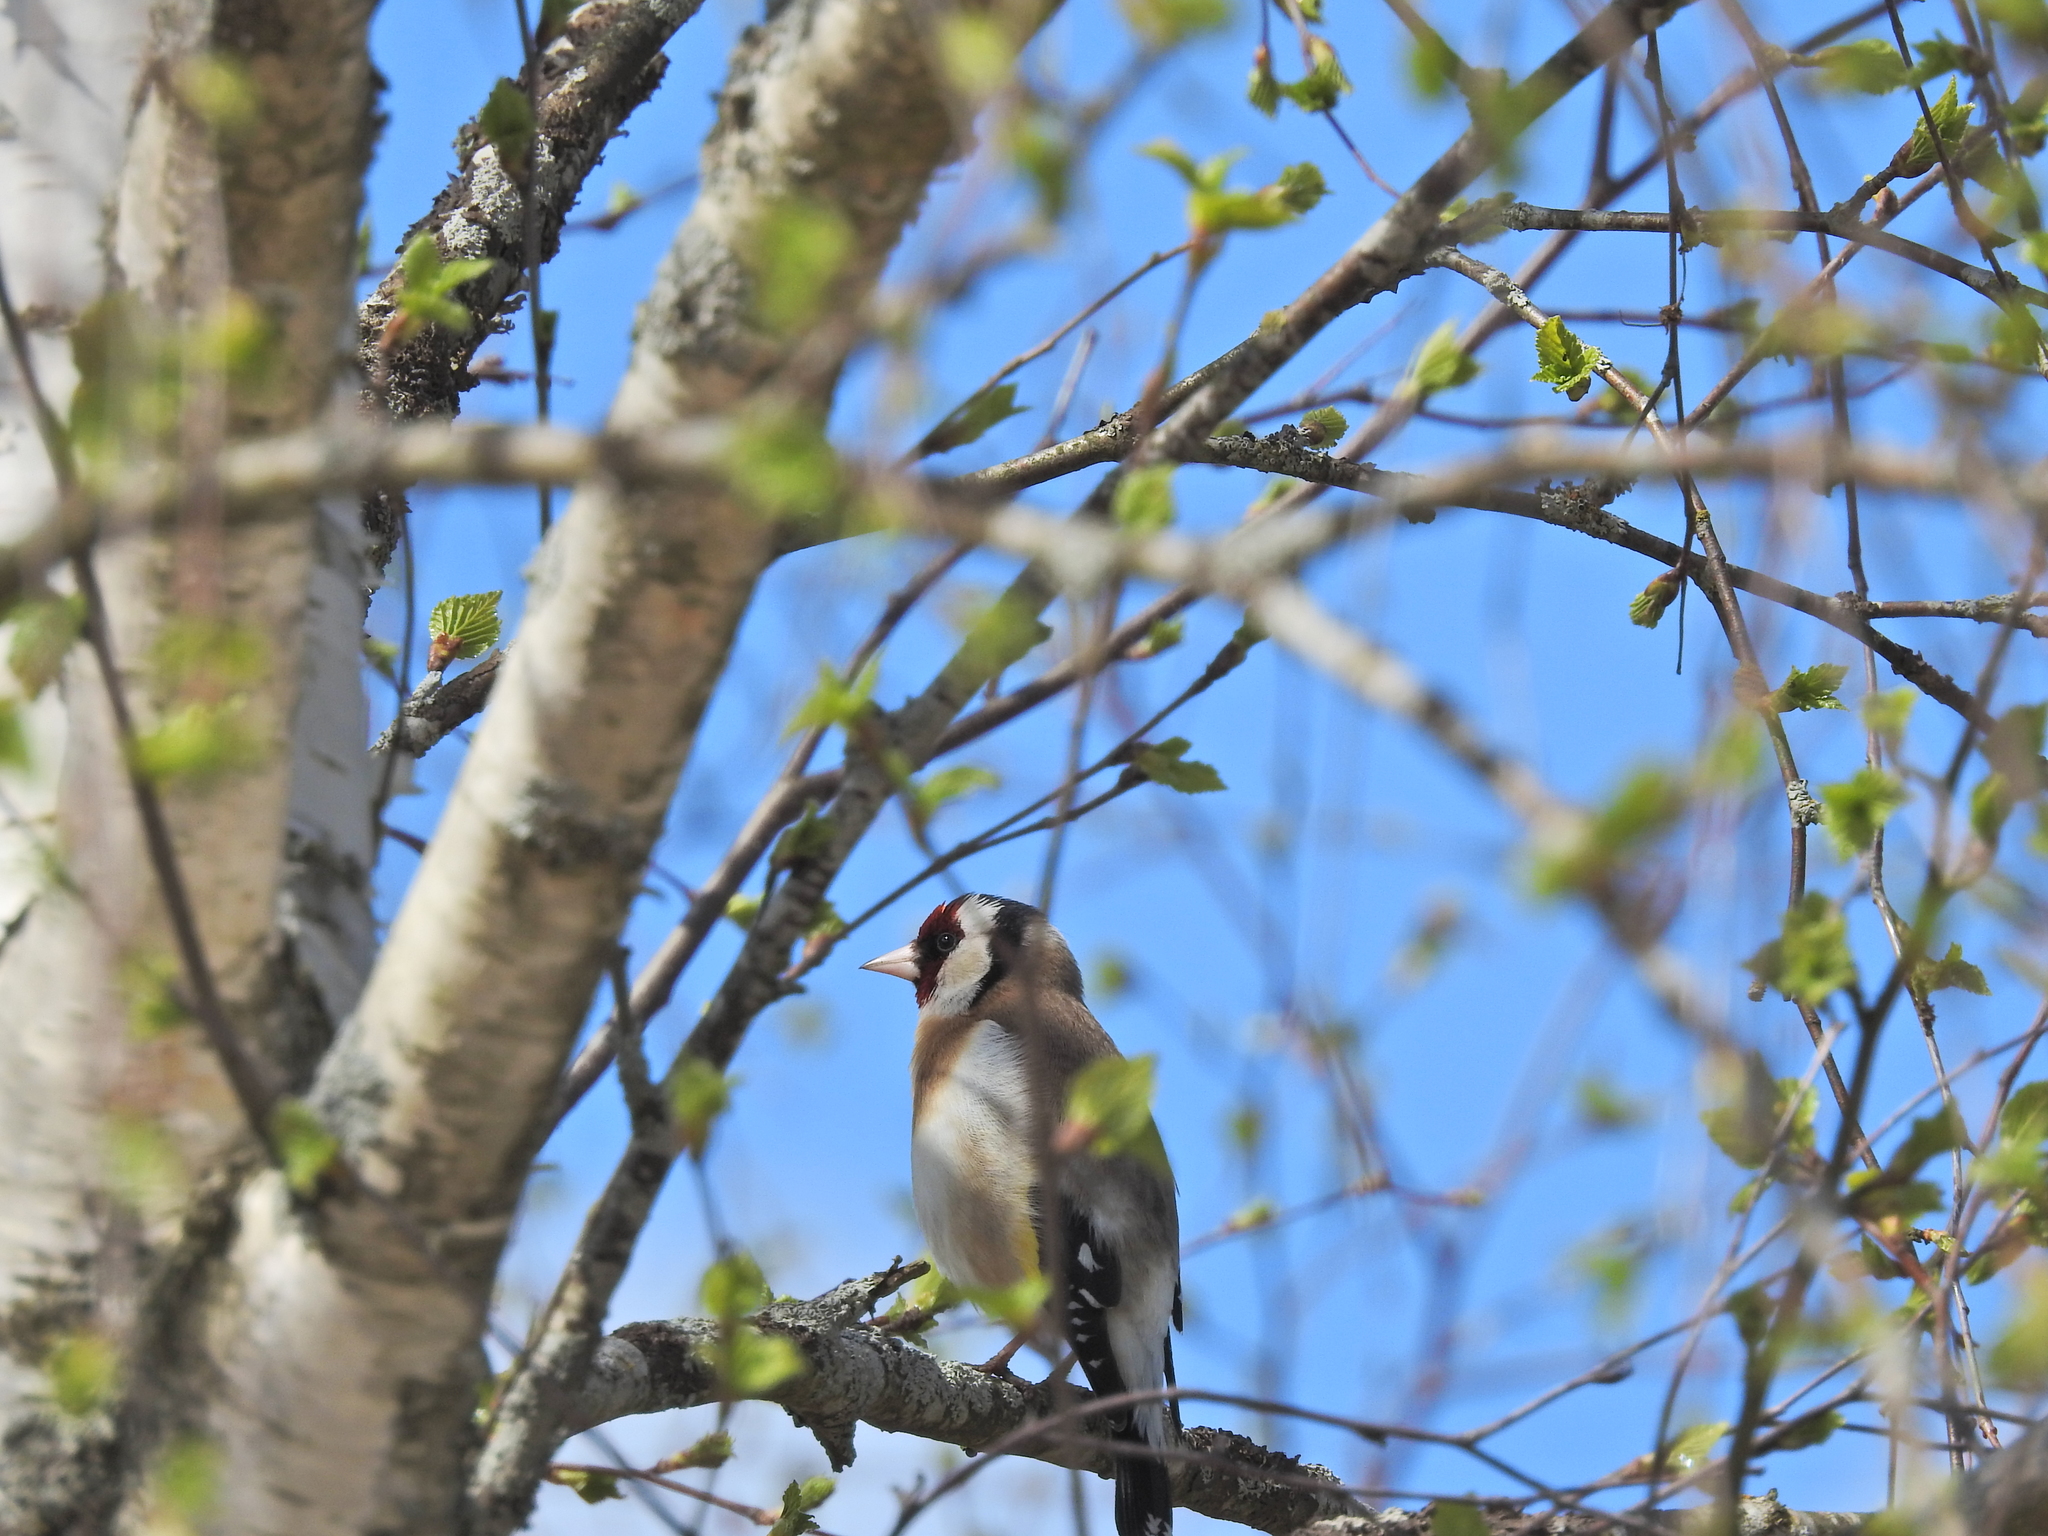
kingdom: Animalia
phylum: Chordata
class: Aves
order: Passeriformes
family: Fringillidae
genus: Carduelis
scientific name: Carduelis carduelis
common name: European goldfinch
